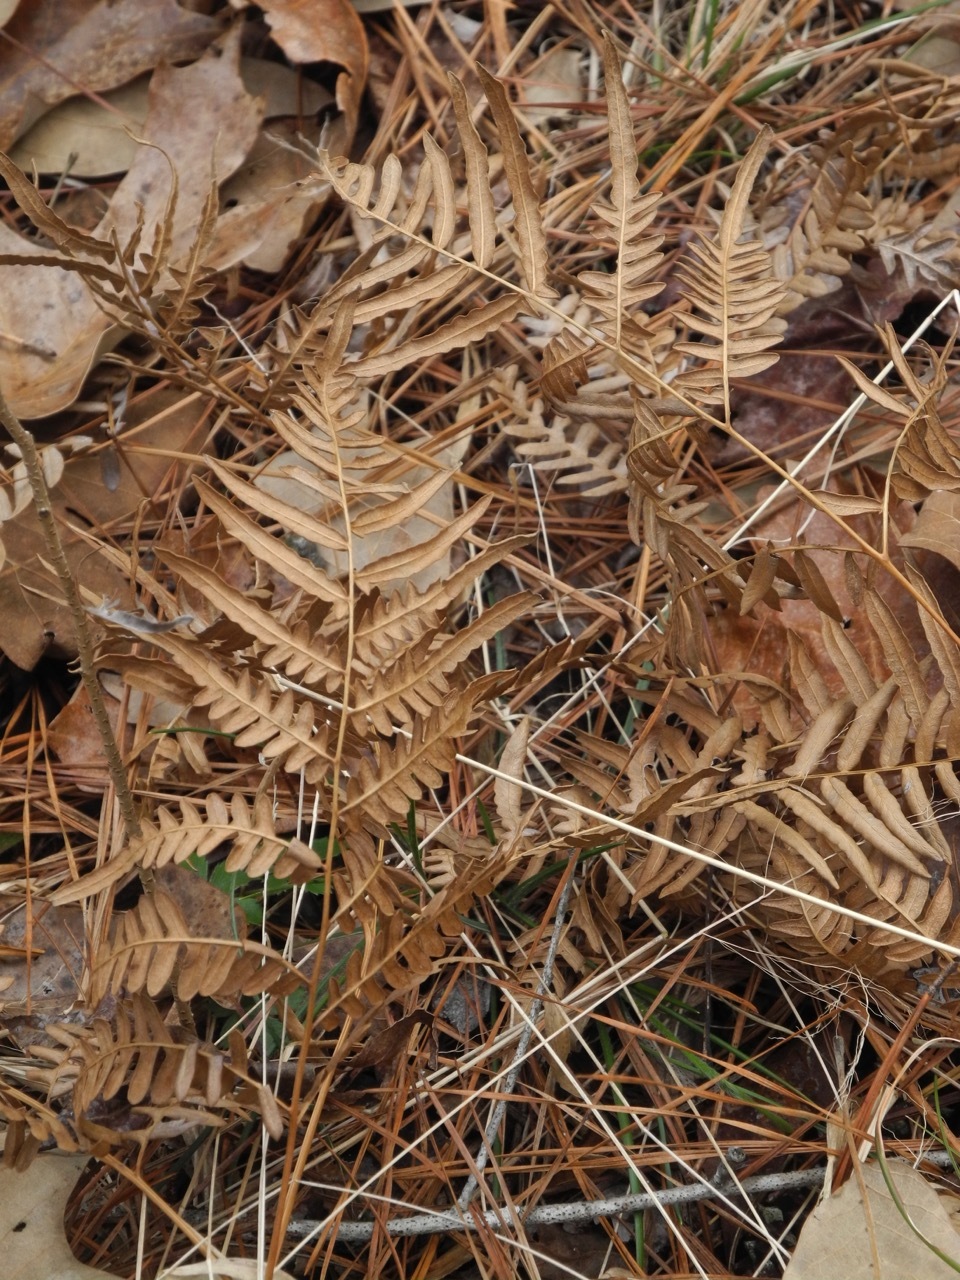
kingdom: Plantae
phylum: Tracheophyta
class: Polypodiopsida
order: Polypodiales
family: Dennstaedtiaceae
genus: Pteridium
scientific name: Pteridium aquilinum
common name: Bracken
